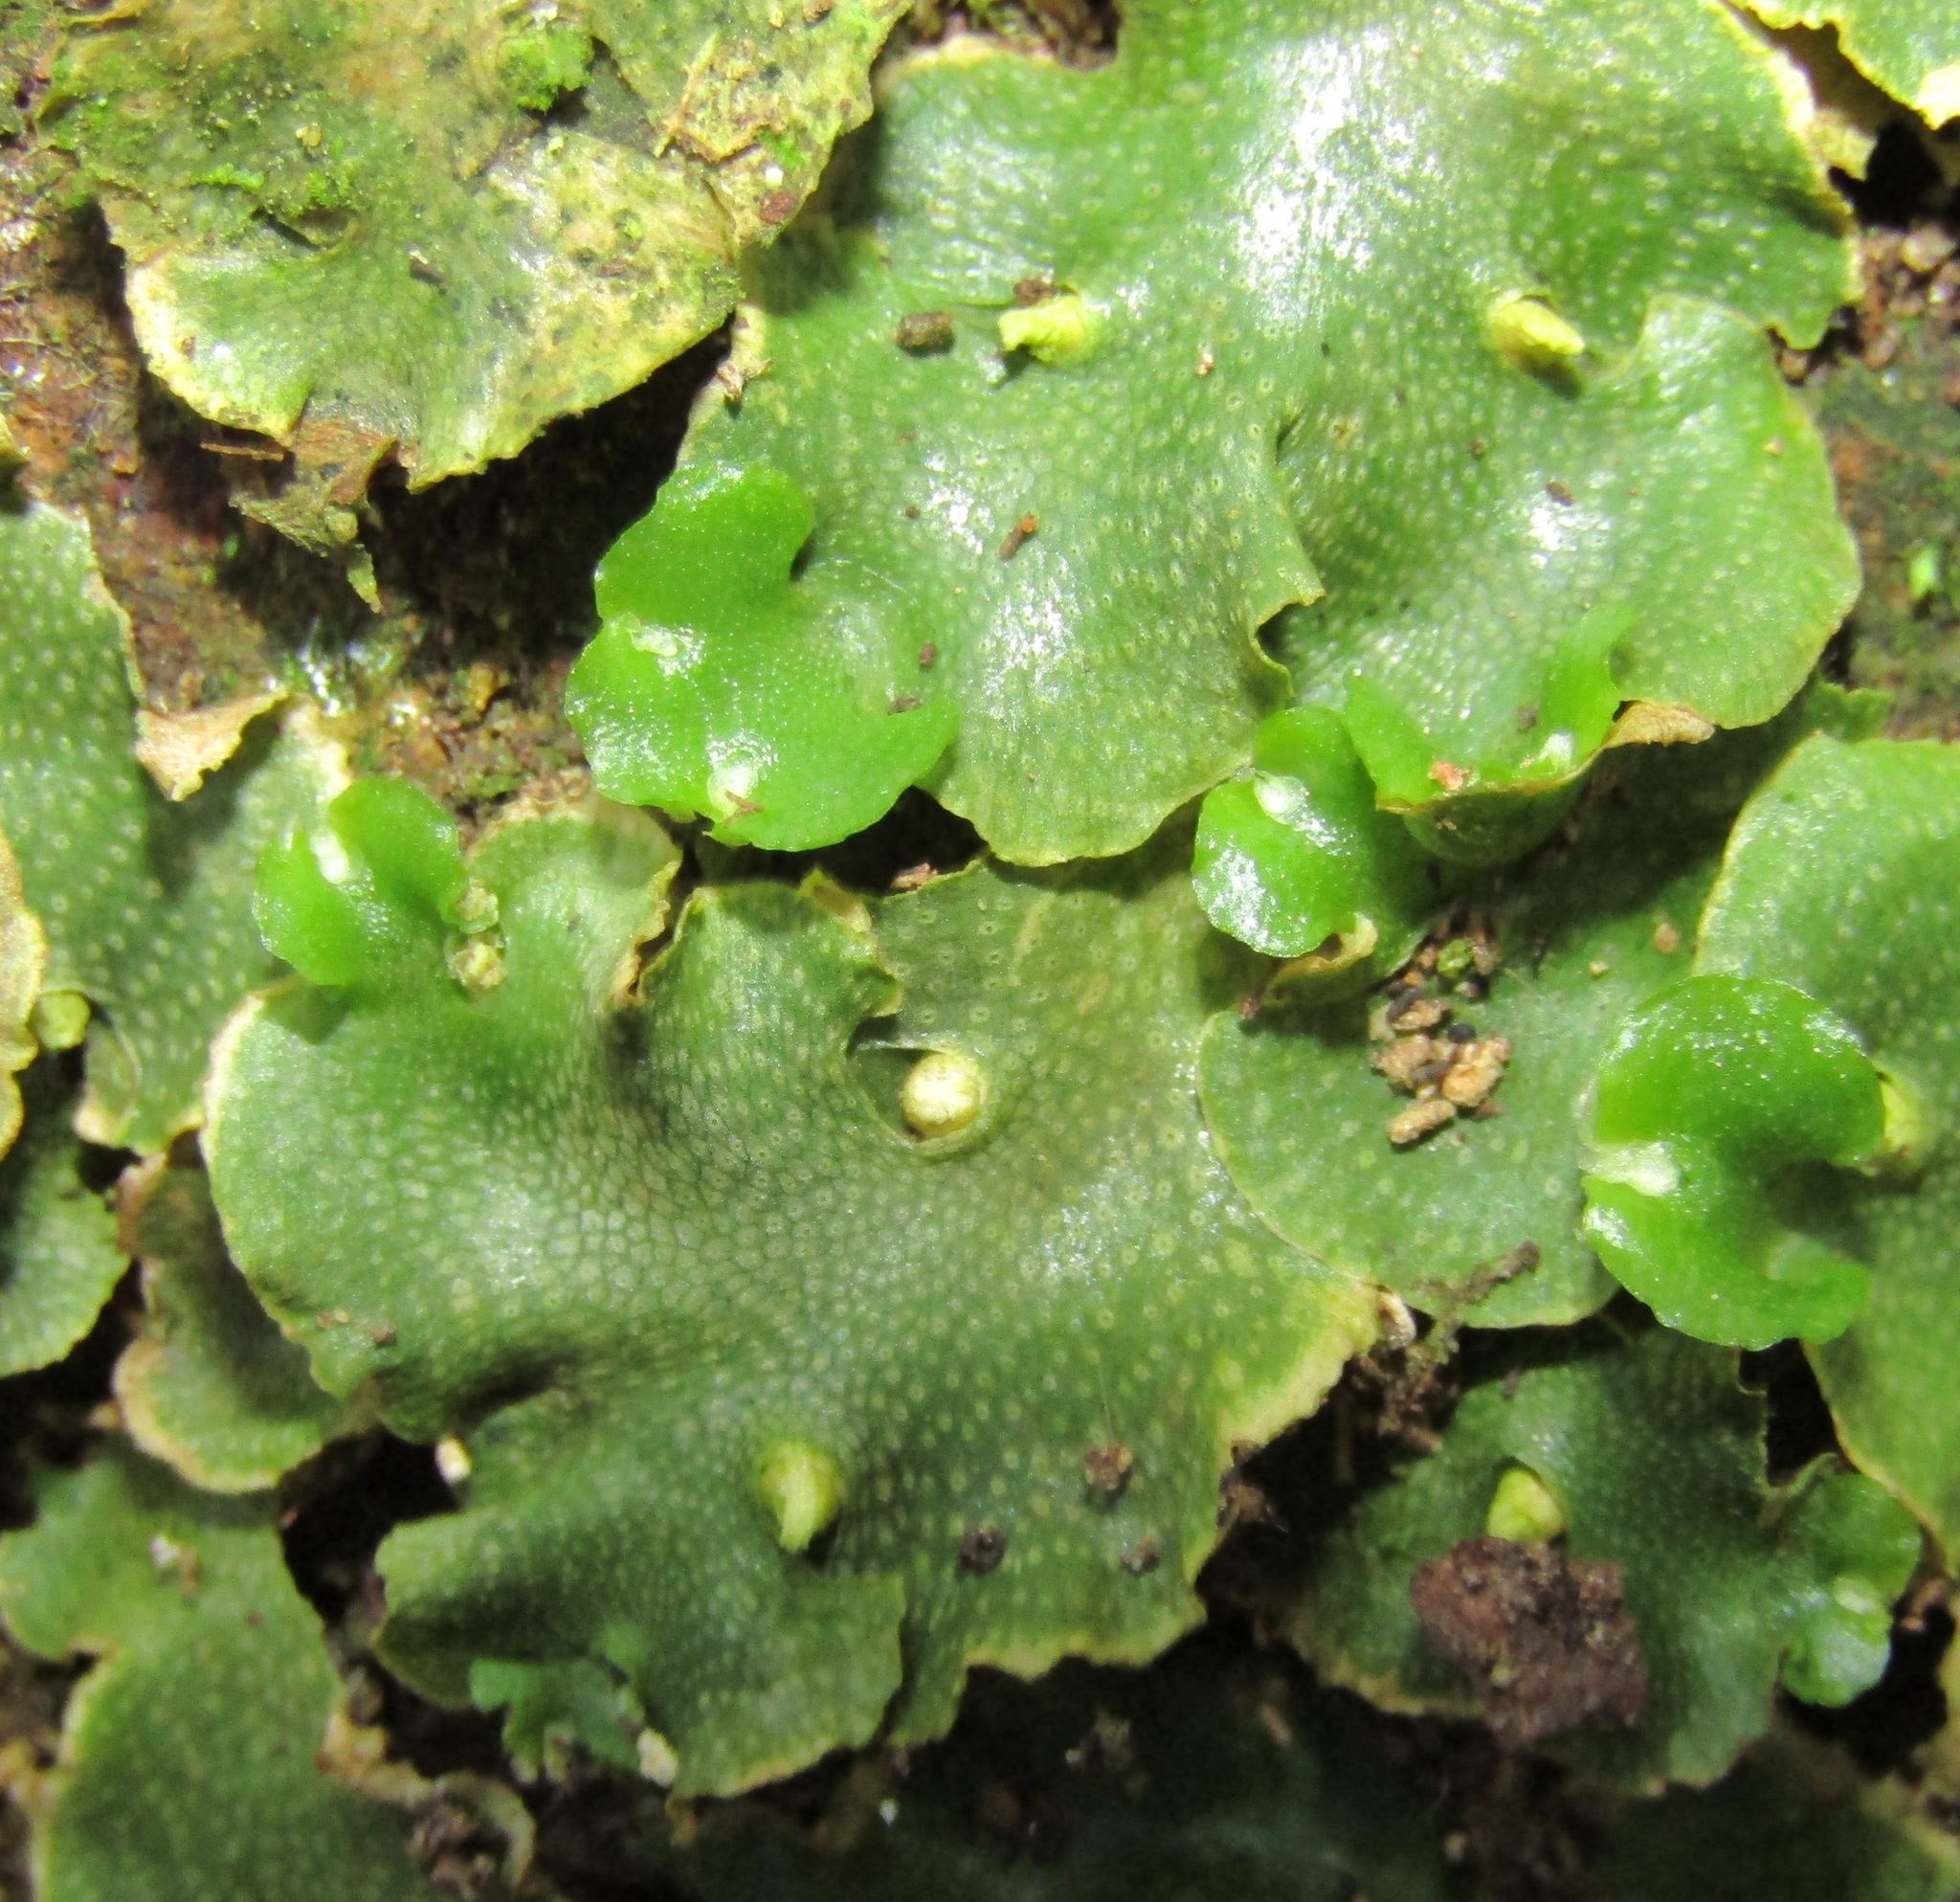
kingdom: Plantae
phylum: Marchantiophyta
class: Marchantiopsida
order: Lunulariales
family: Lunulariaceae
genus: Lunularia
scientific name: Lunularia cruciata
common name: Crescent-cup liverwort
